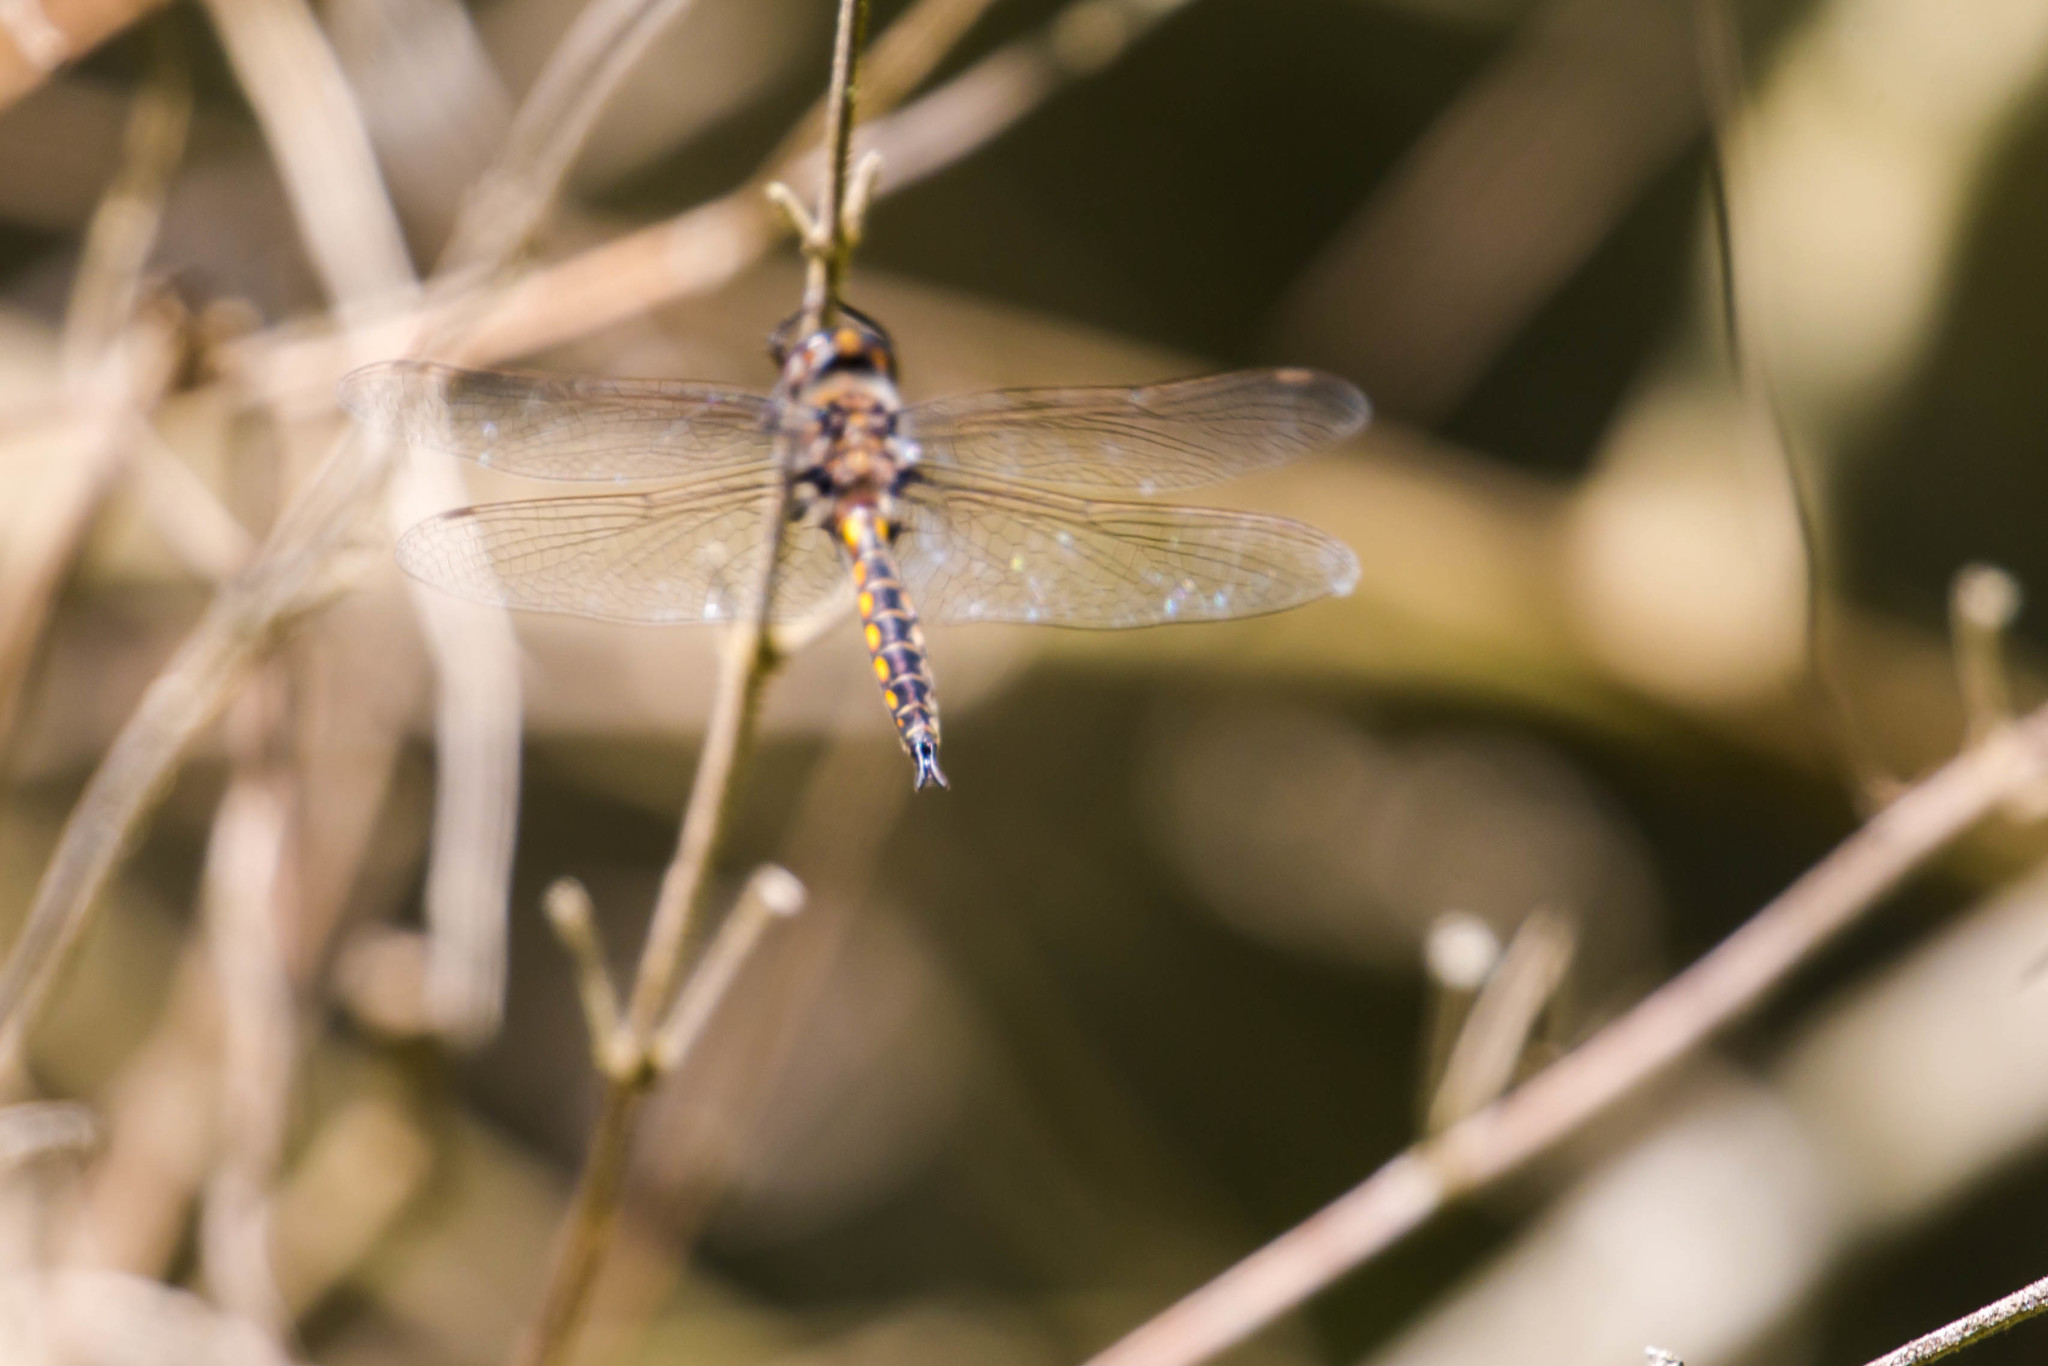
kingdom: Animalia
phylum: Arthropoda
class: Insecta
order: Odonata
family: Corduliidae
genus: Epitheca
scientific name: Epitheca cynosura
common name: Common baskettail
